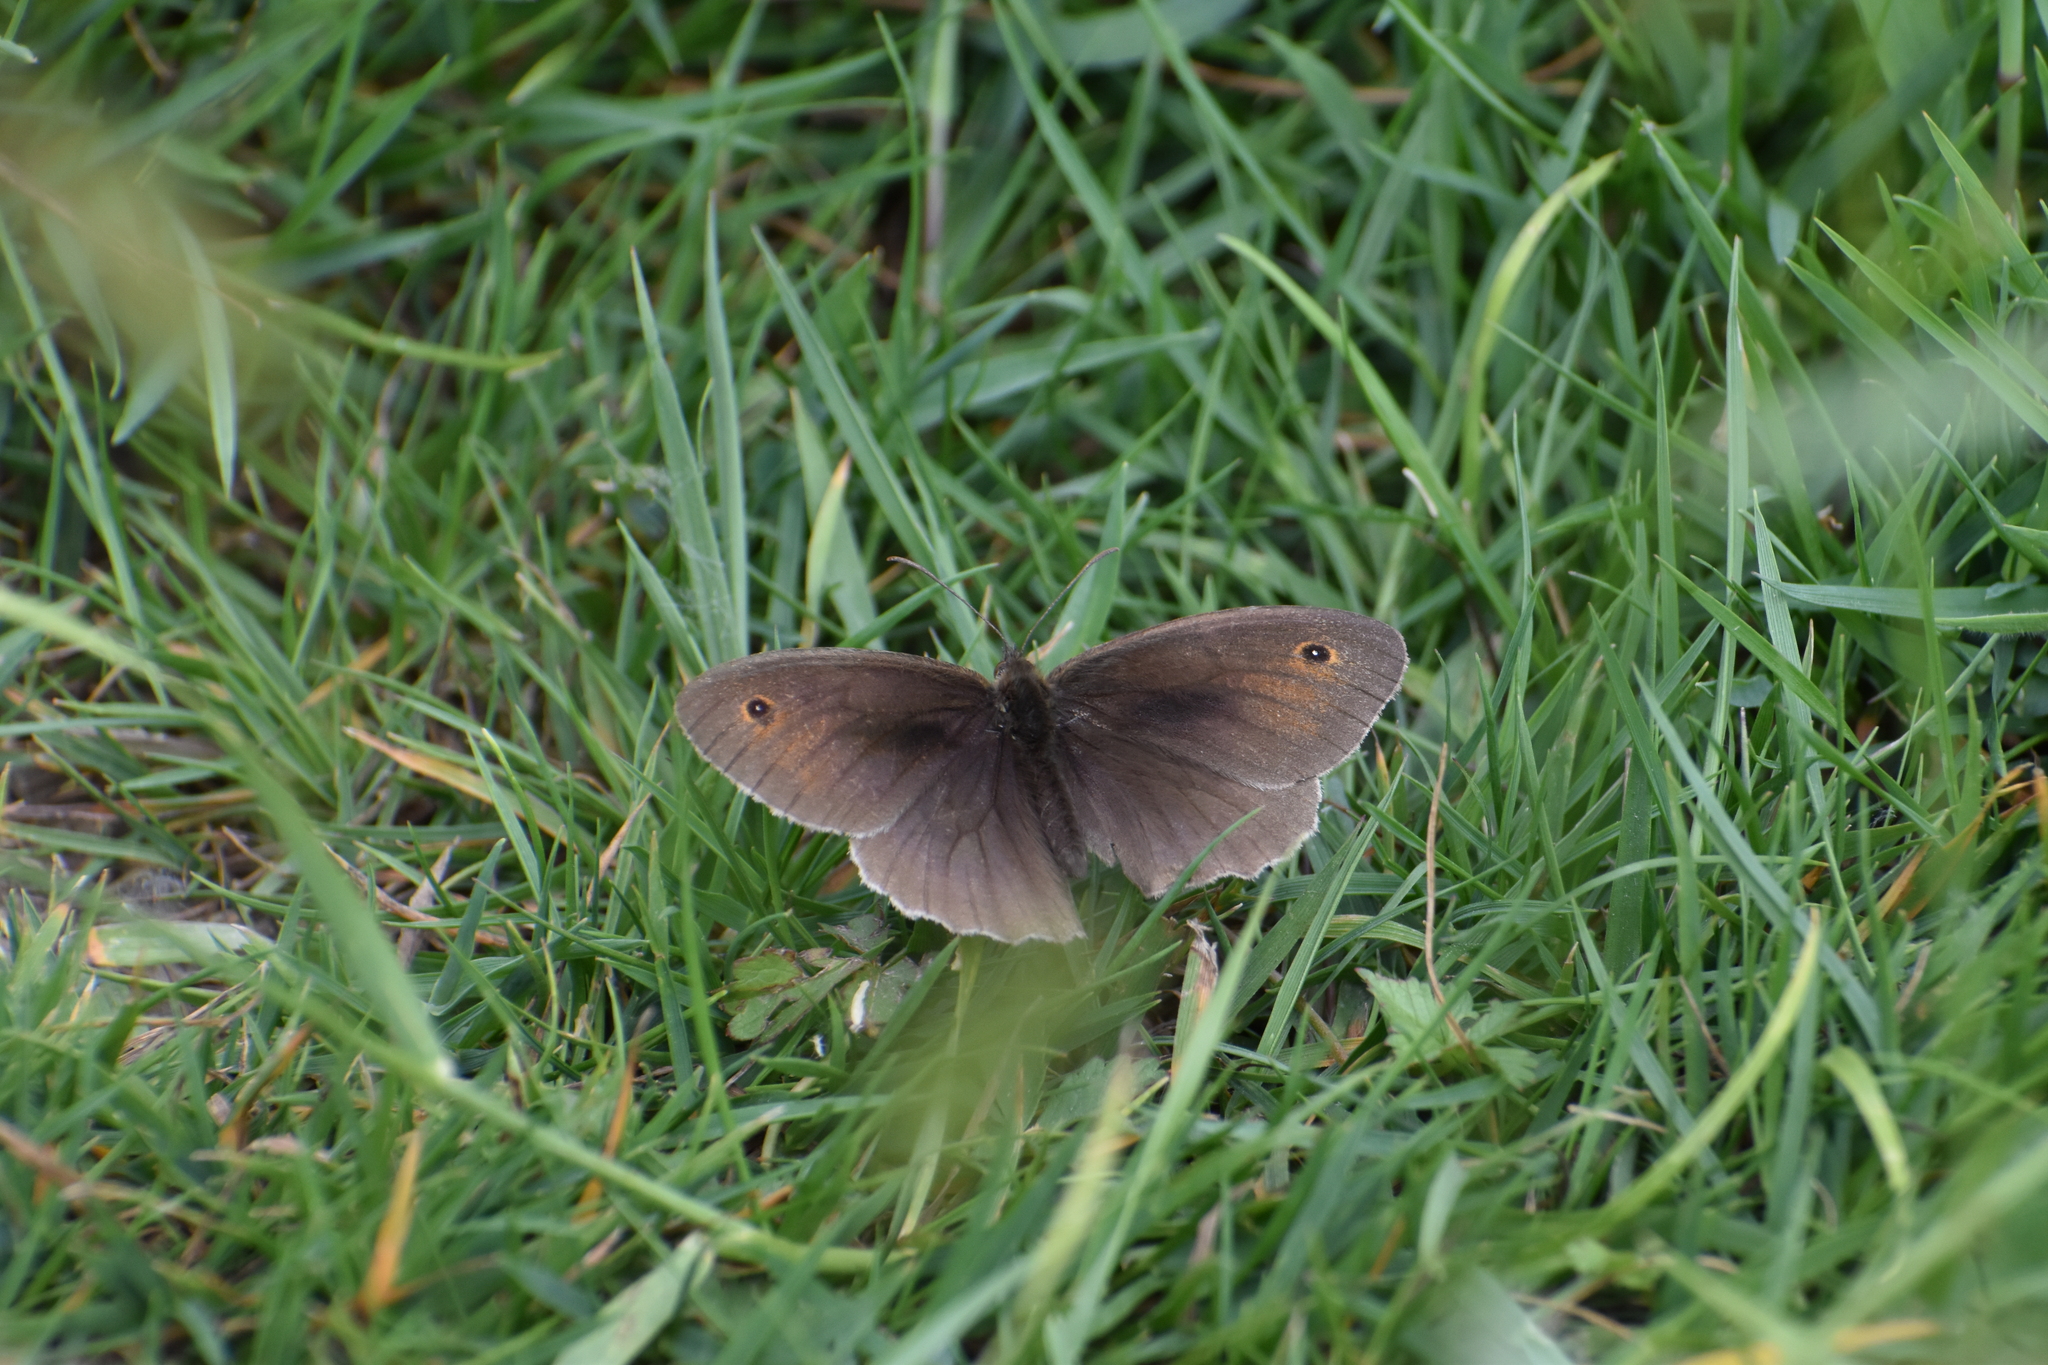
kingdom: Animalia
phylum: Arthropoda
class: Insecta
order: Lepidoptera
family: Nymphalidae
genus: Maniola
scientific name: Maniola jurtina
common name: Meadow brown
